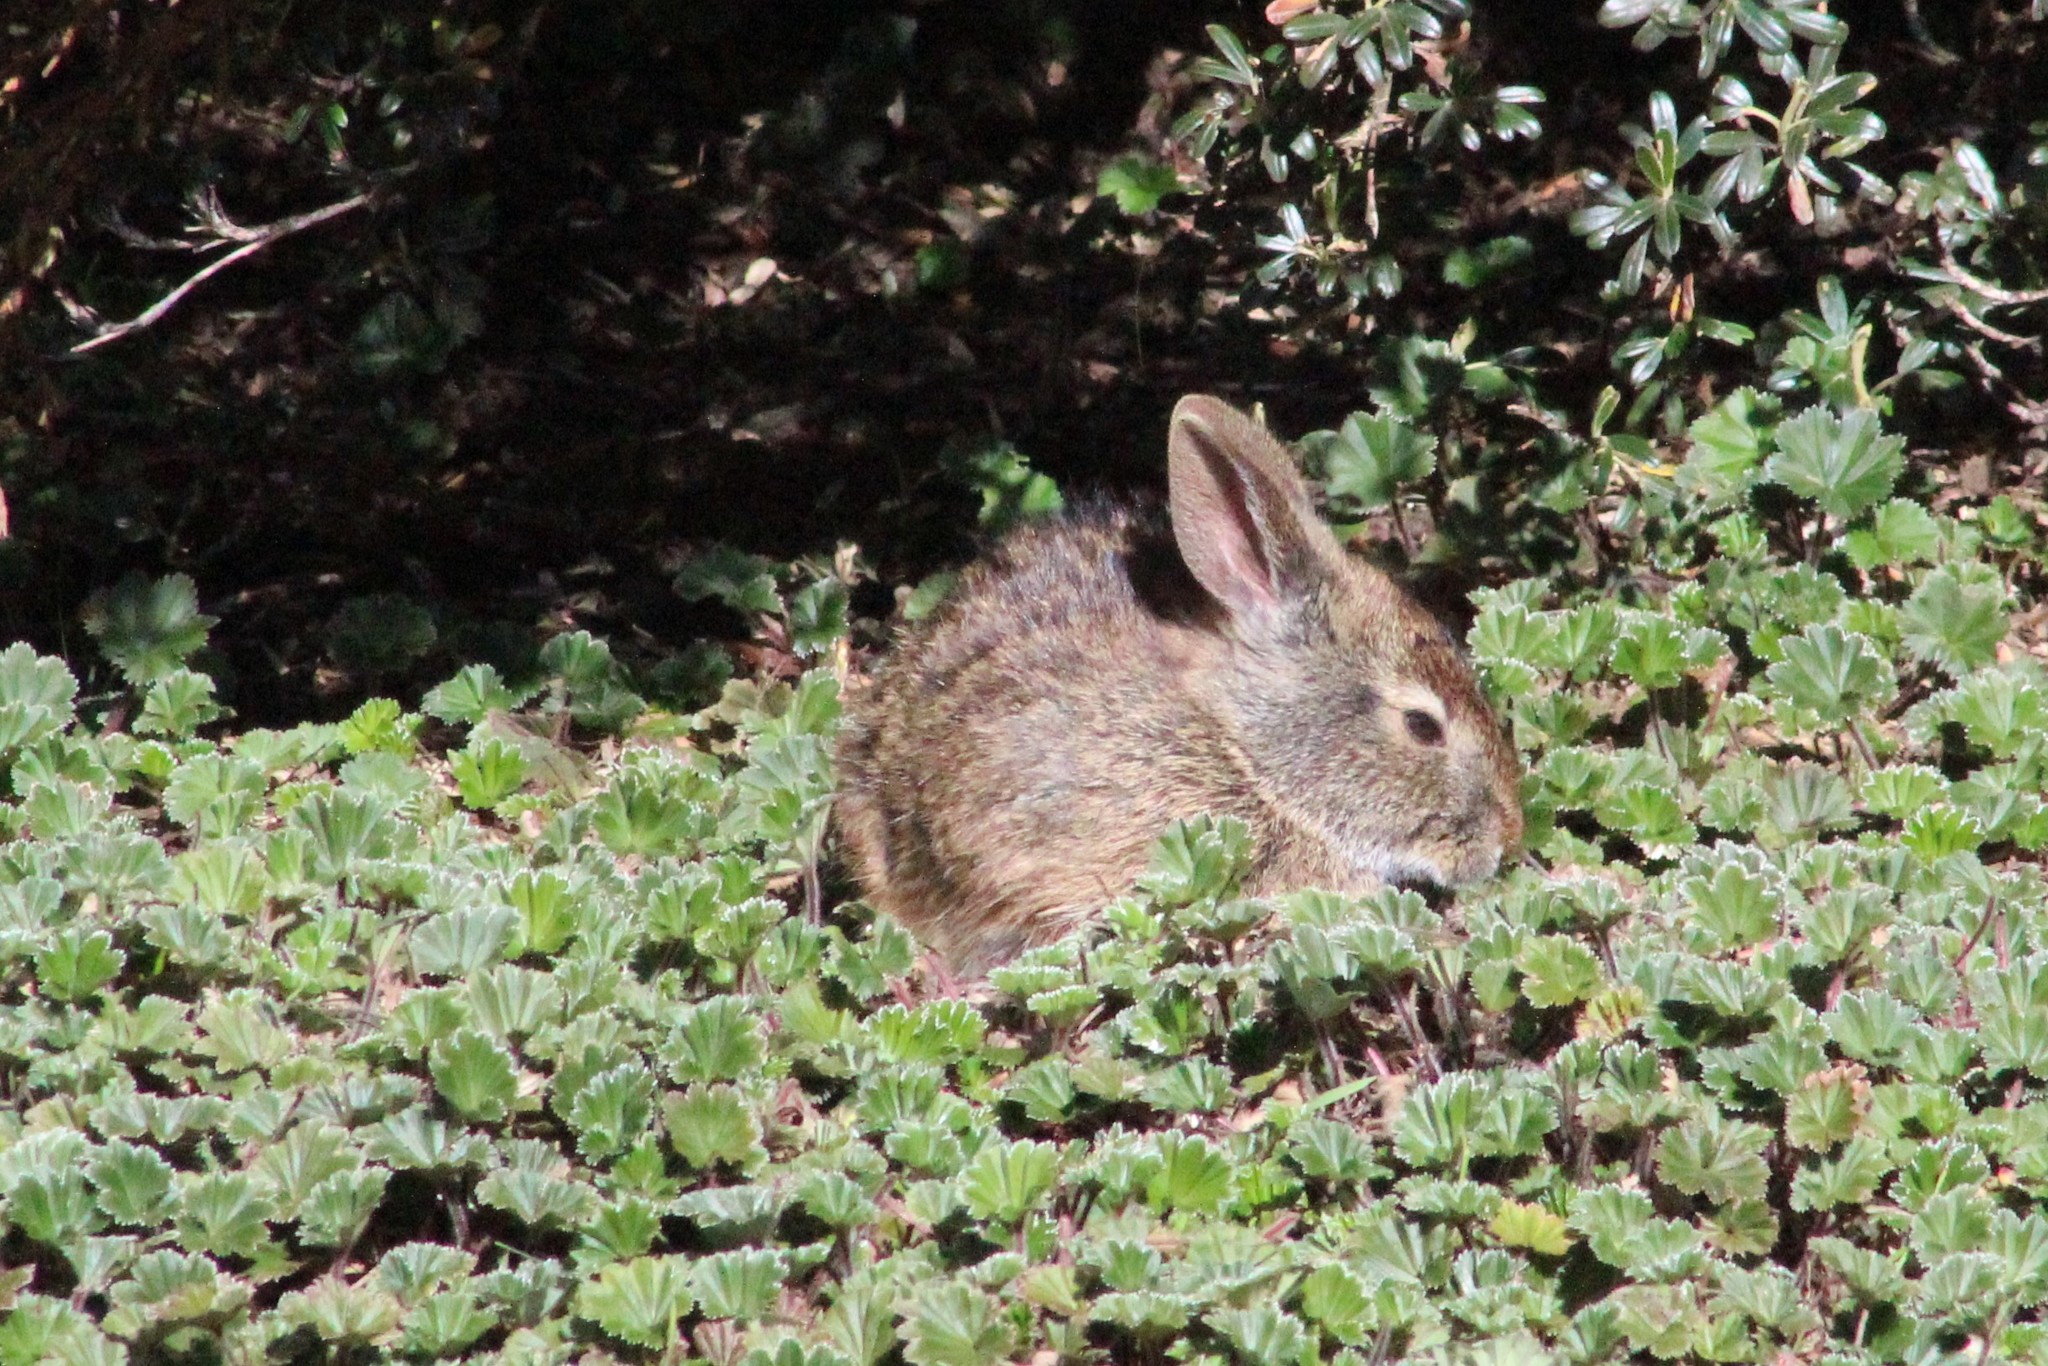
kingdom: Animalia
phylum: Chordata
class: Mammalia
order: Lagomorpha
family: Leporidae
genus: Sylvilagus
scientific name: Sylvilagus andinus
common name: Andean cottontail
